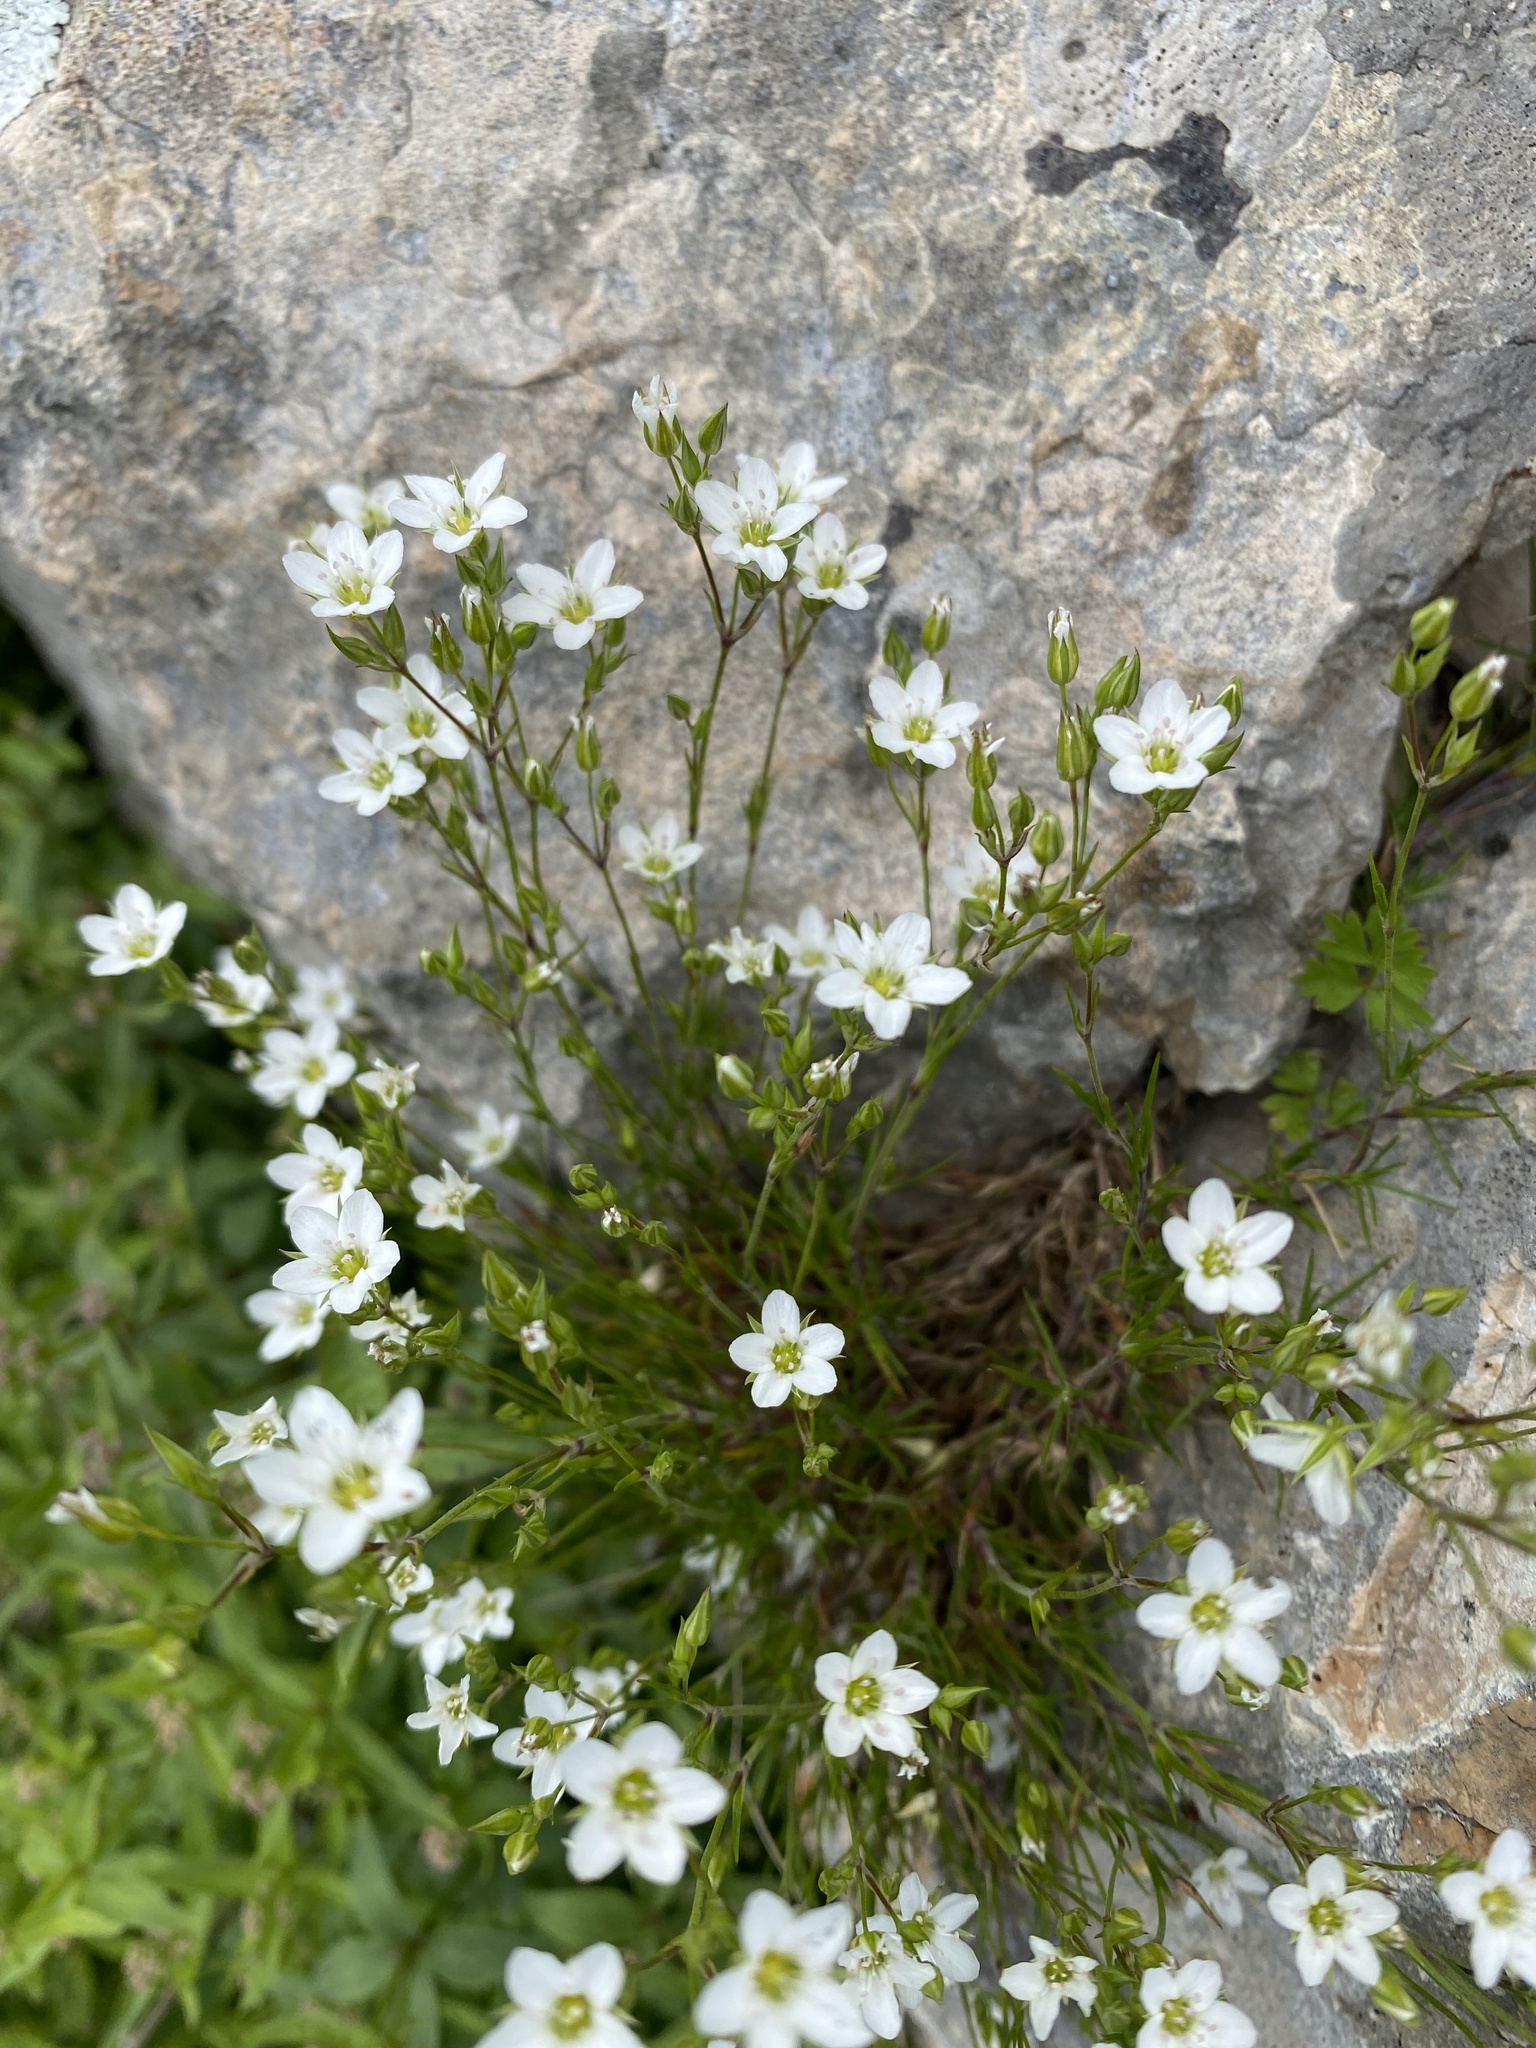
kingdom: Plantae
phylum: Tracheophyta
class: Magnoliopsida
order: Caryophyllales
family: Caryophyllaceae
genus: Minuartia
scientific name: Minuartia buschiana
